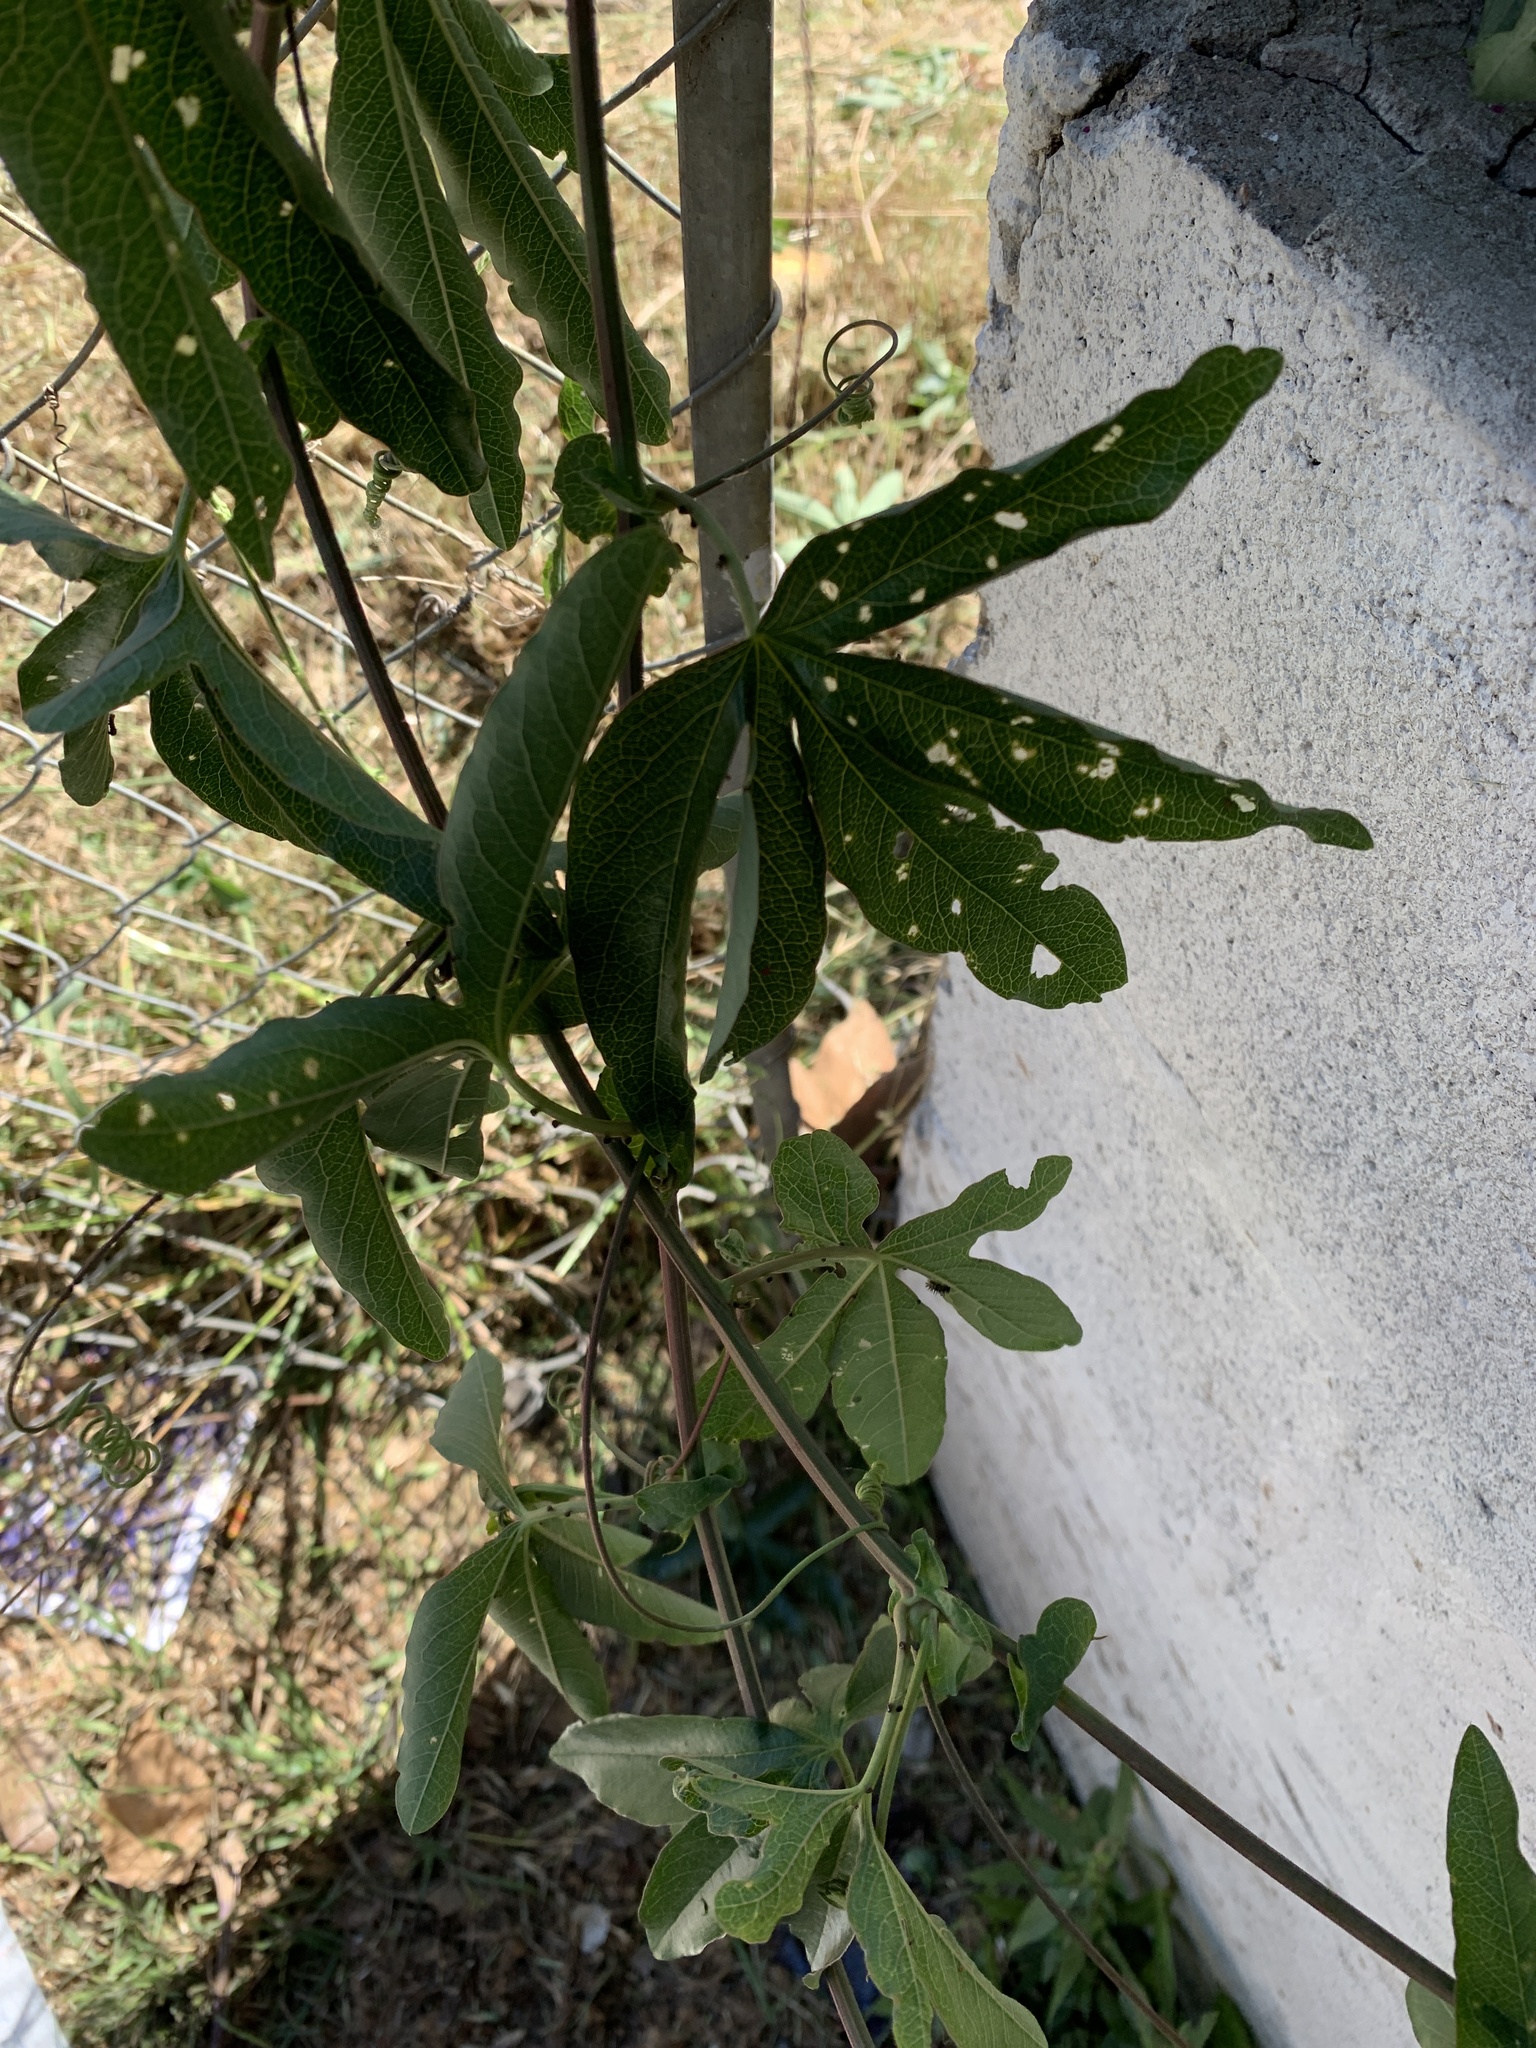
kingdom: Plantae
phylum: Tracheophyta
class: Magnoliopsida
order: Malpighiales
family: Passifloraceae
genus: Passiflora
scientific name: Passiflora caerulea
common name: Blue passionflower
